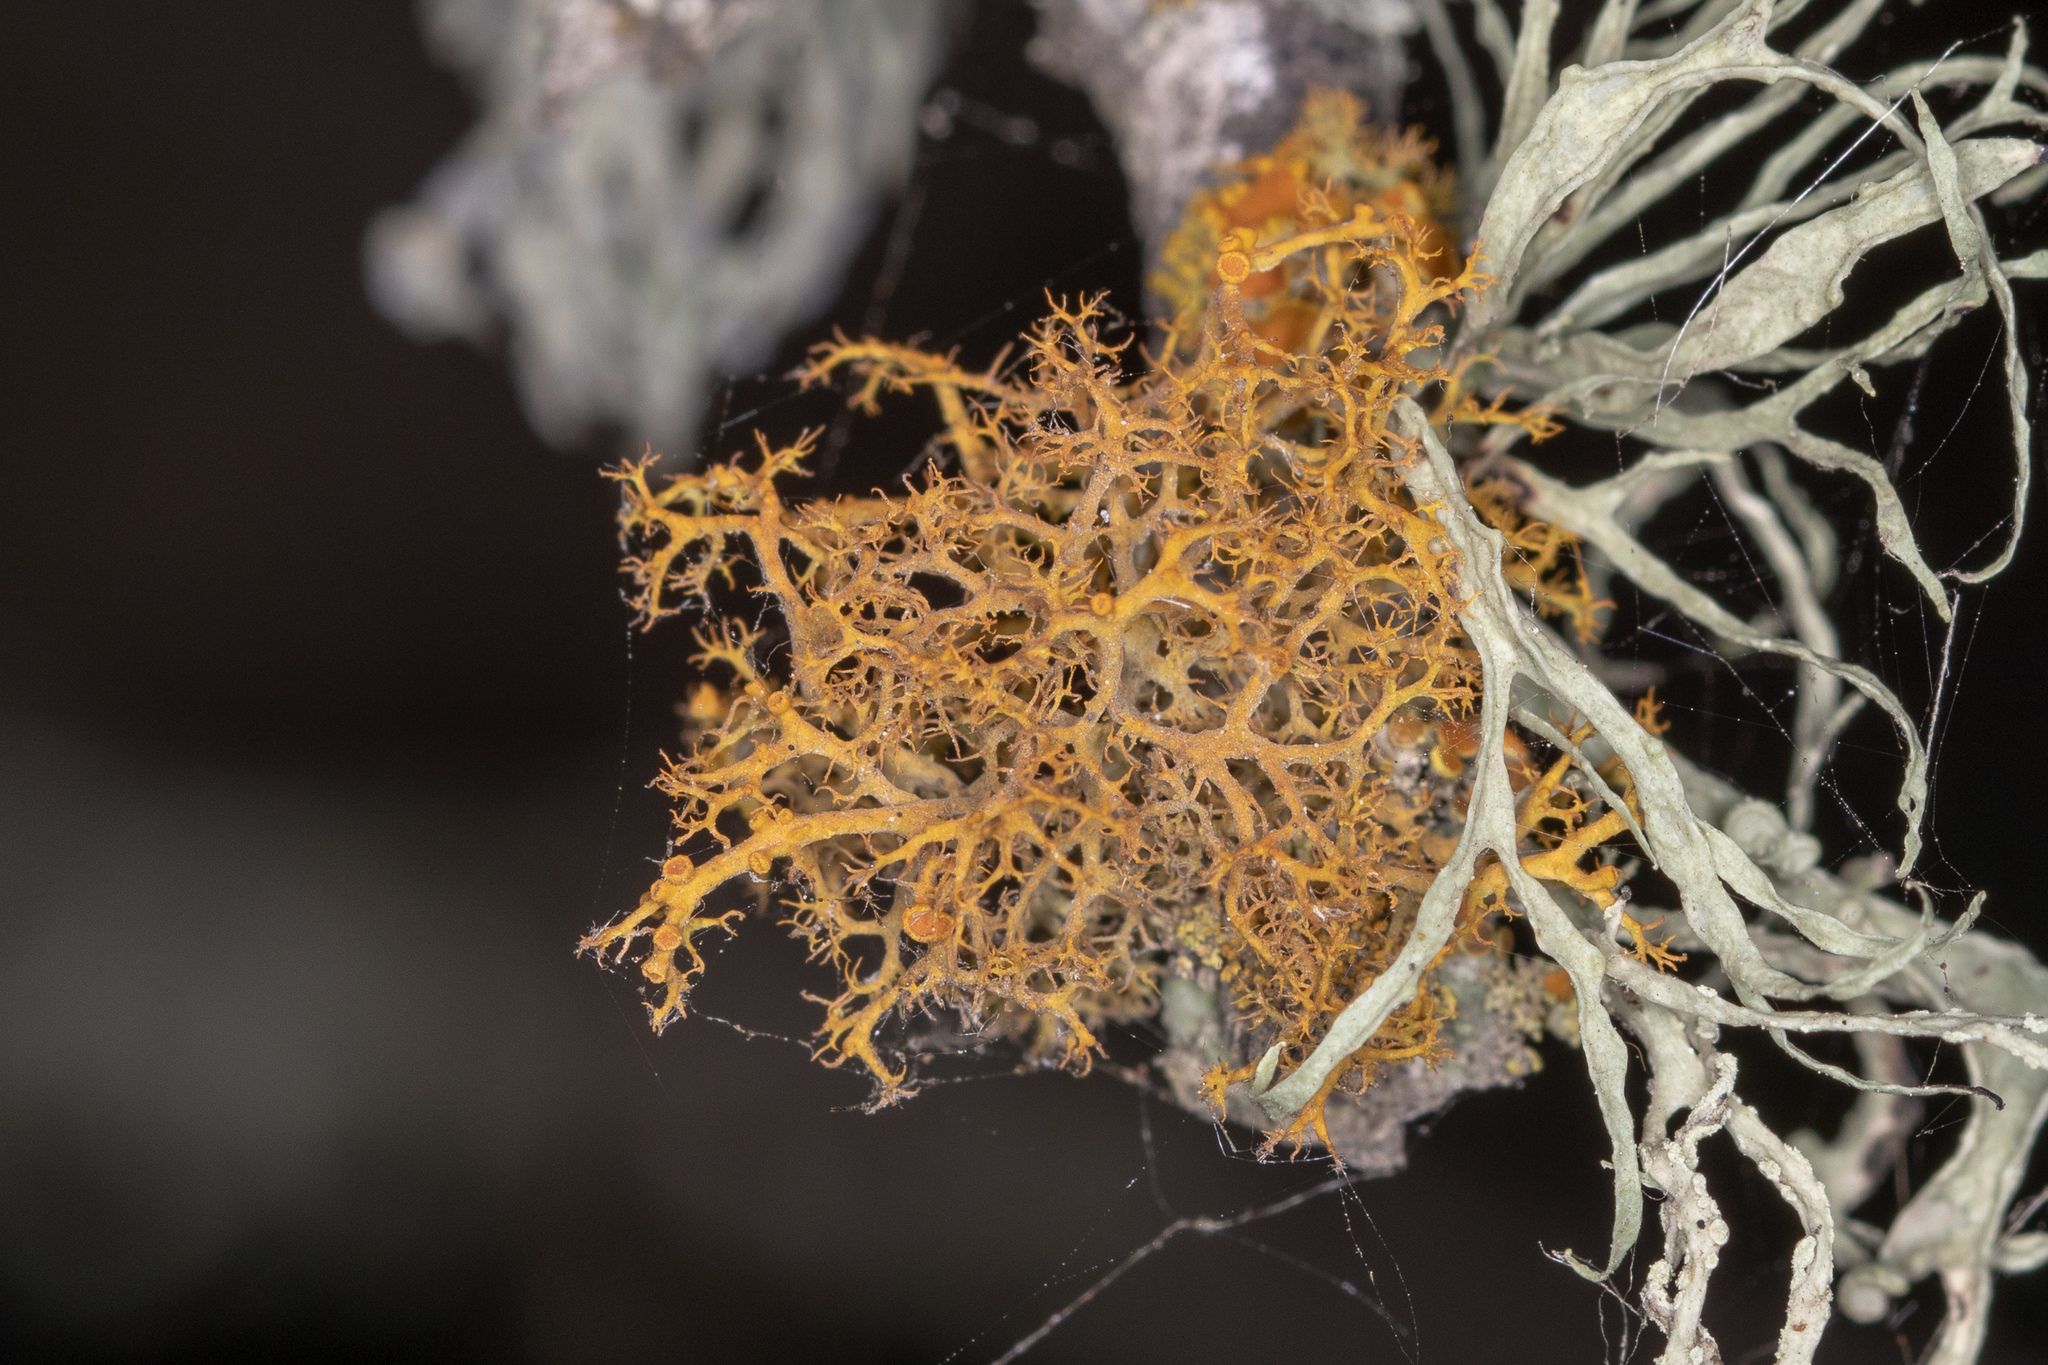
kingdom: Fungi
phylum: Ascomycota
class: Lecanoromycetes
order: Teloschistales
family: Teloschistaceae
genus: Teloschistes
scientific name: Teloschistes flavicans
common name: Golden hair-lichen
